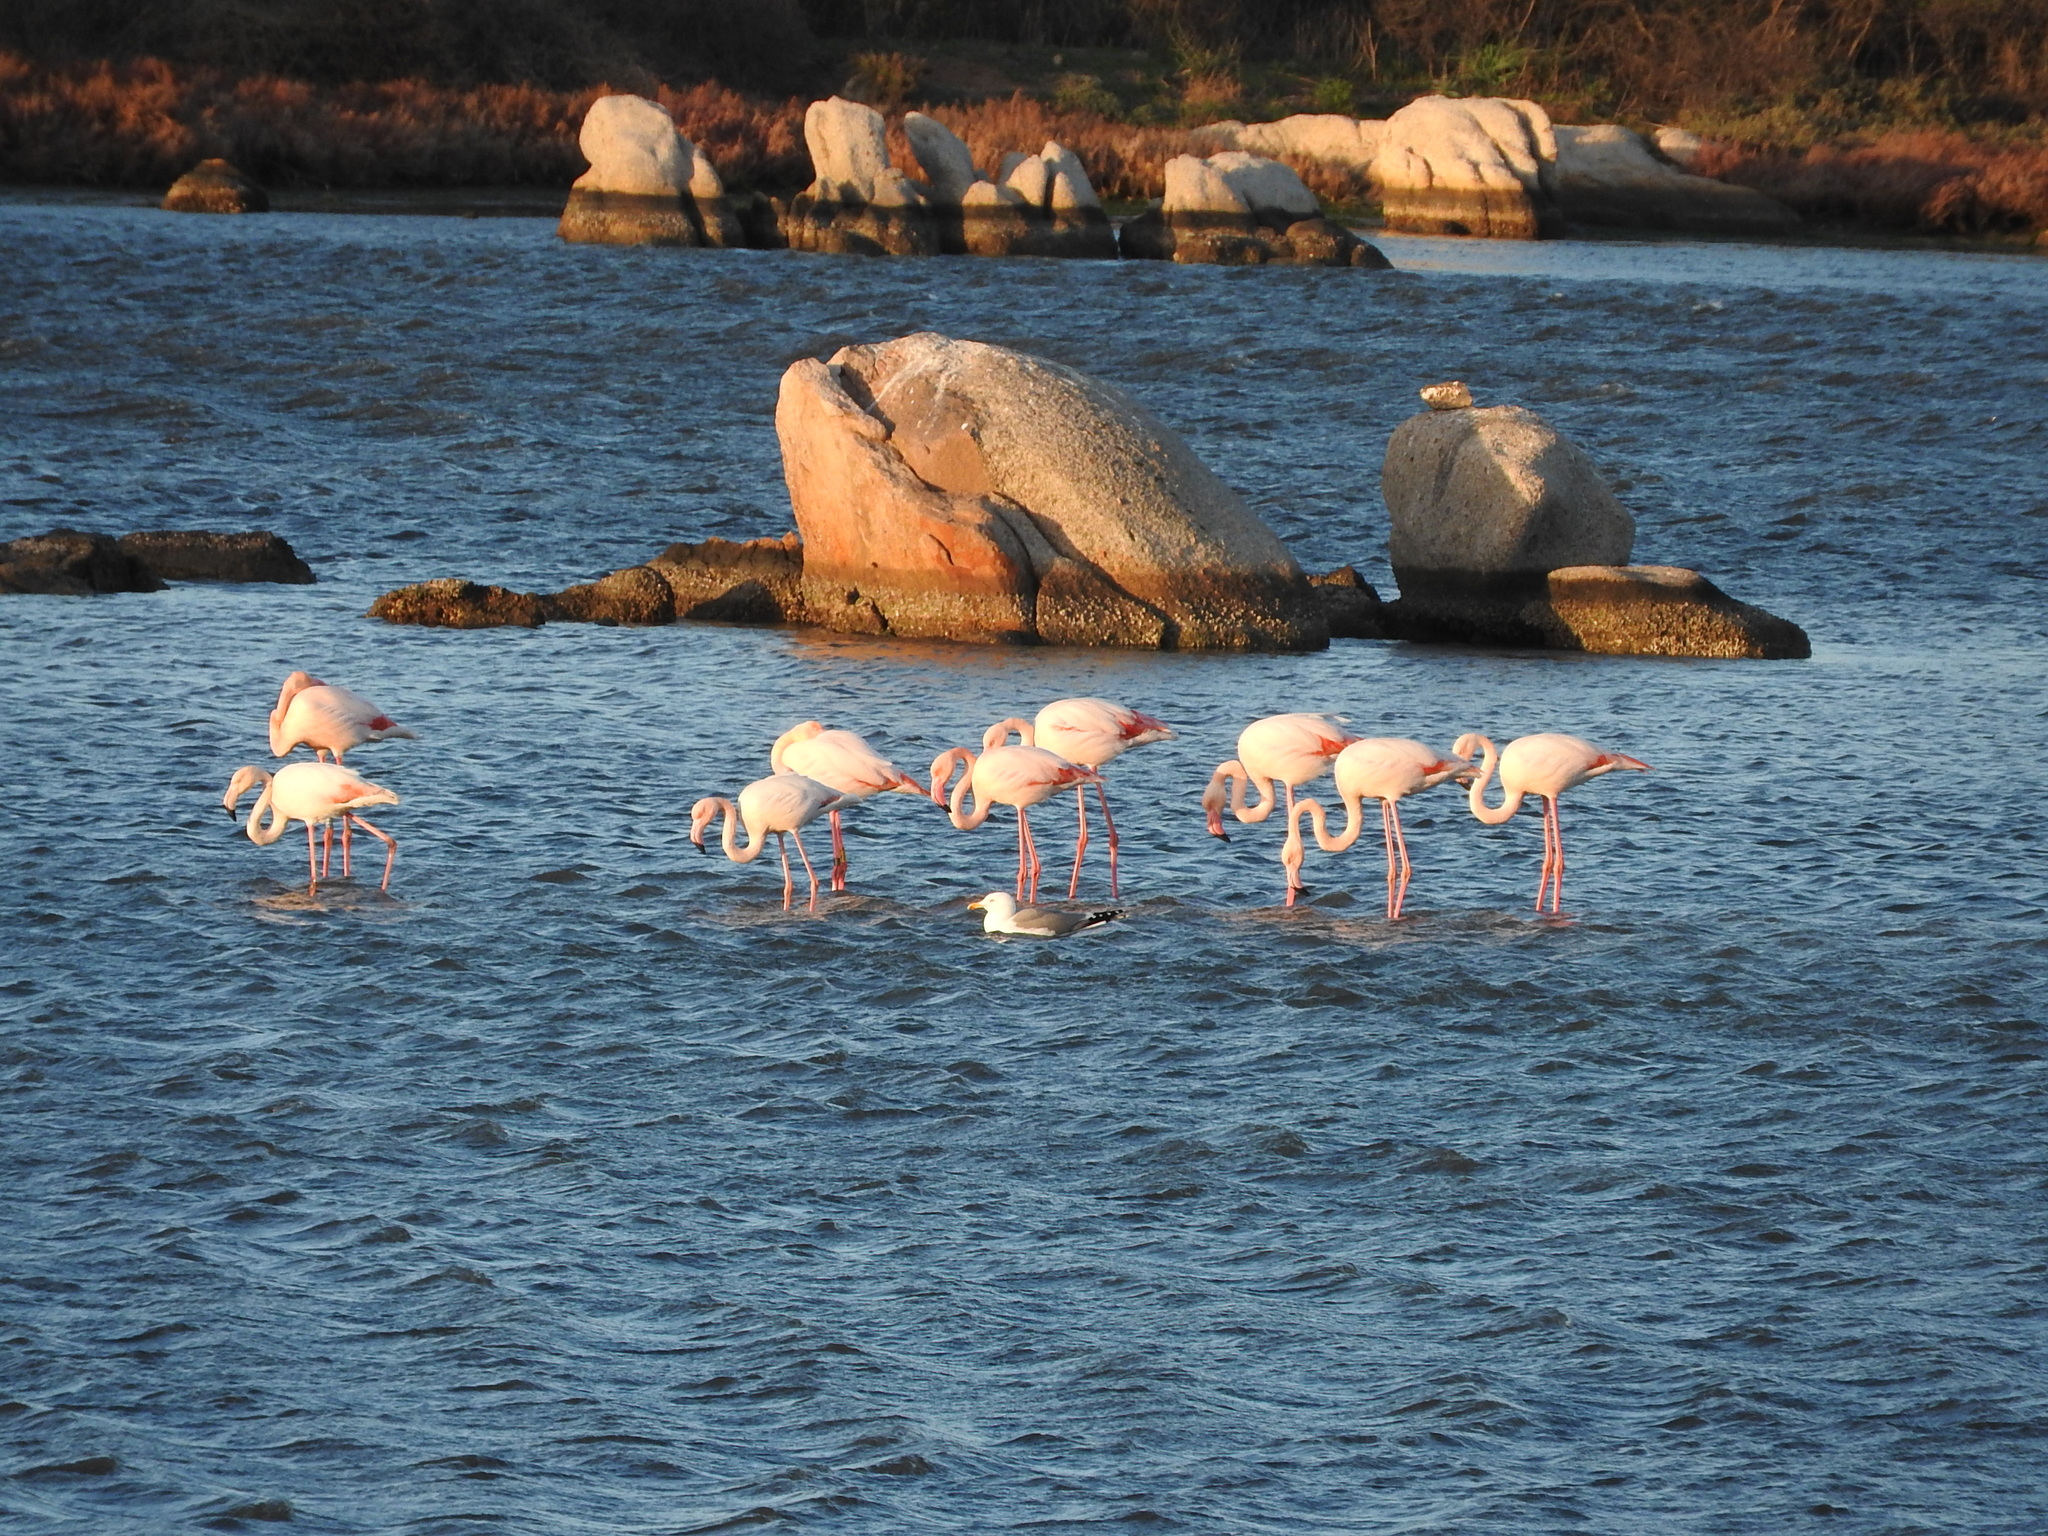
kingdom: Animalia
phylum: Chordata
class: Aves
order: Phoenicopteriformes
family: Phoenicopteridae
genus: Phoenicopterus
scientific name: Phoenicopterus roseus
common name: Greater flamingo
